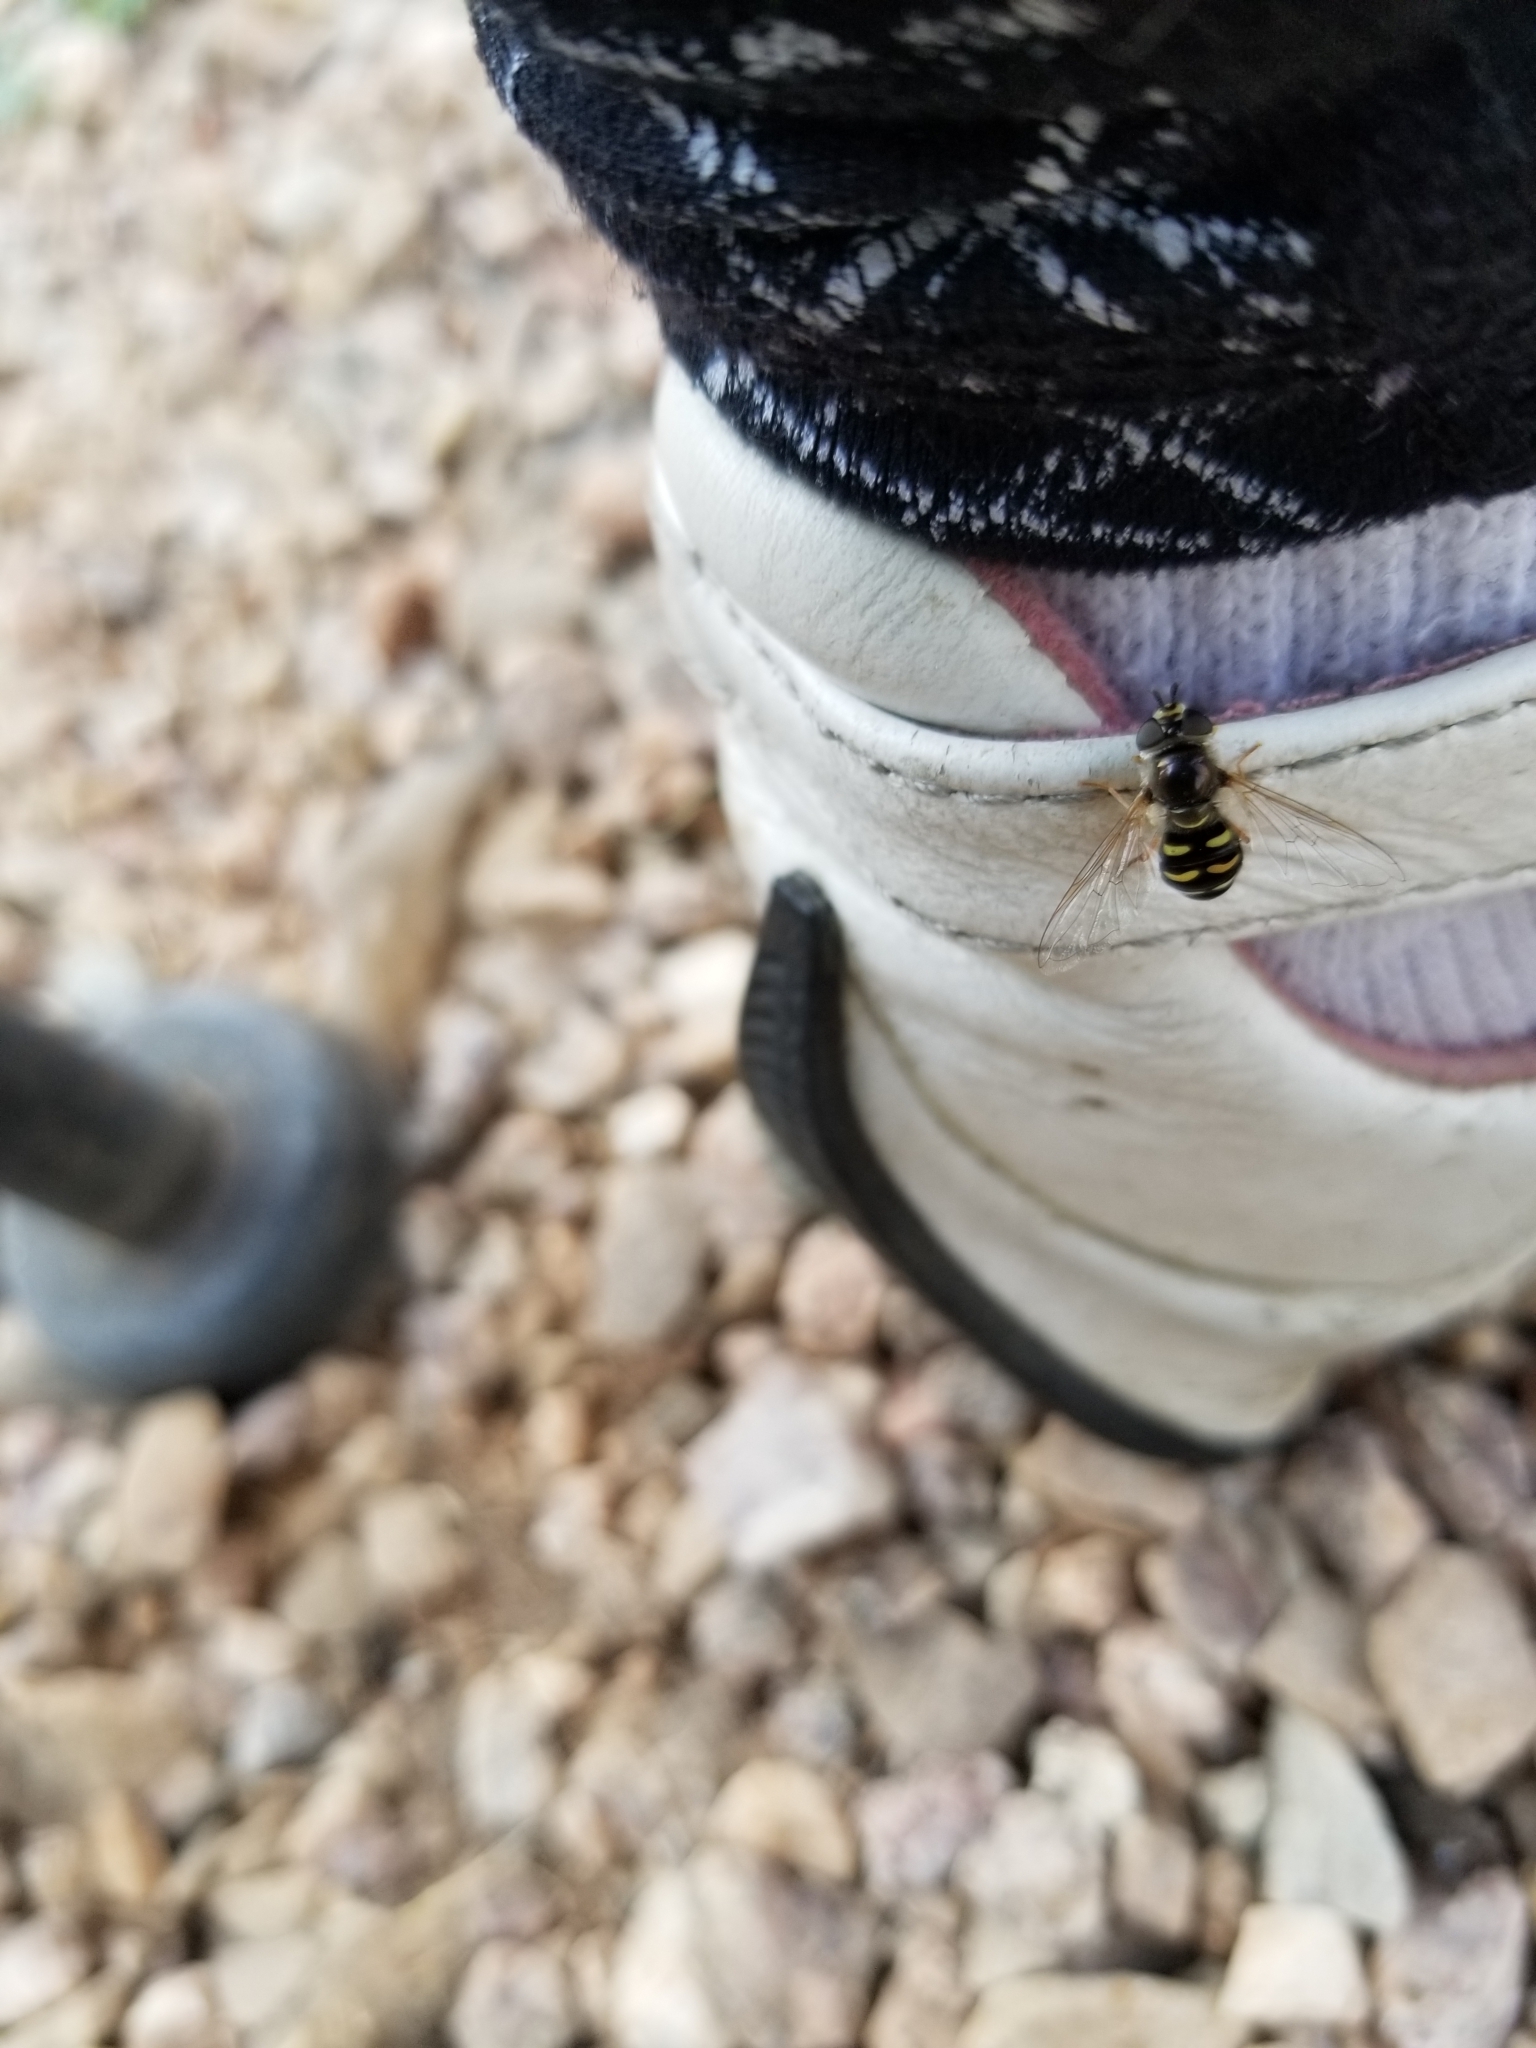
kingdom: Animalia
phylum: Arthropoda
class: Insecta
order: Diptera
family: Syrphidae
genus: Eupeodes
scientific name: Eupeodes volucris
